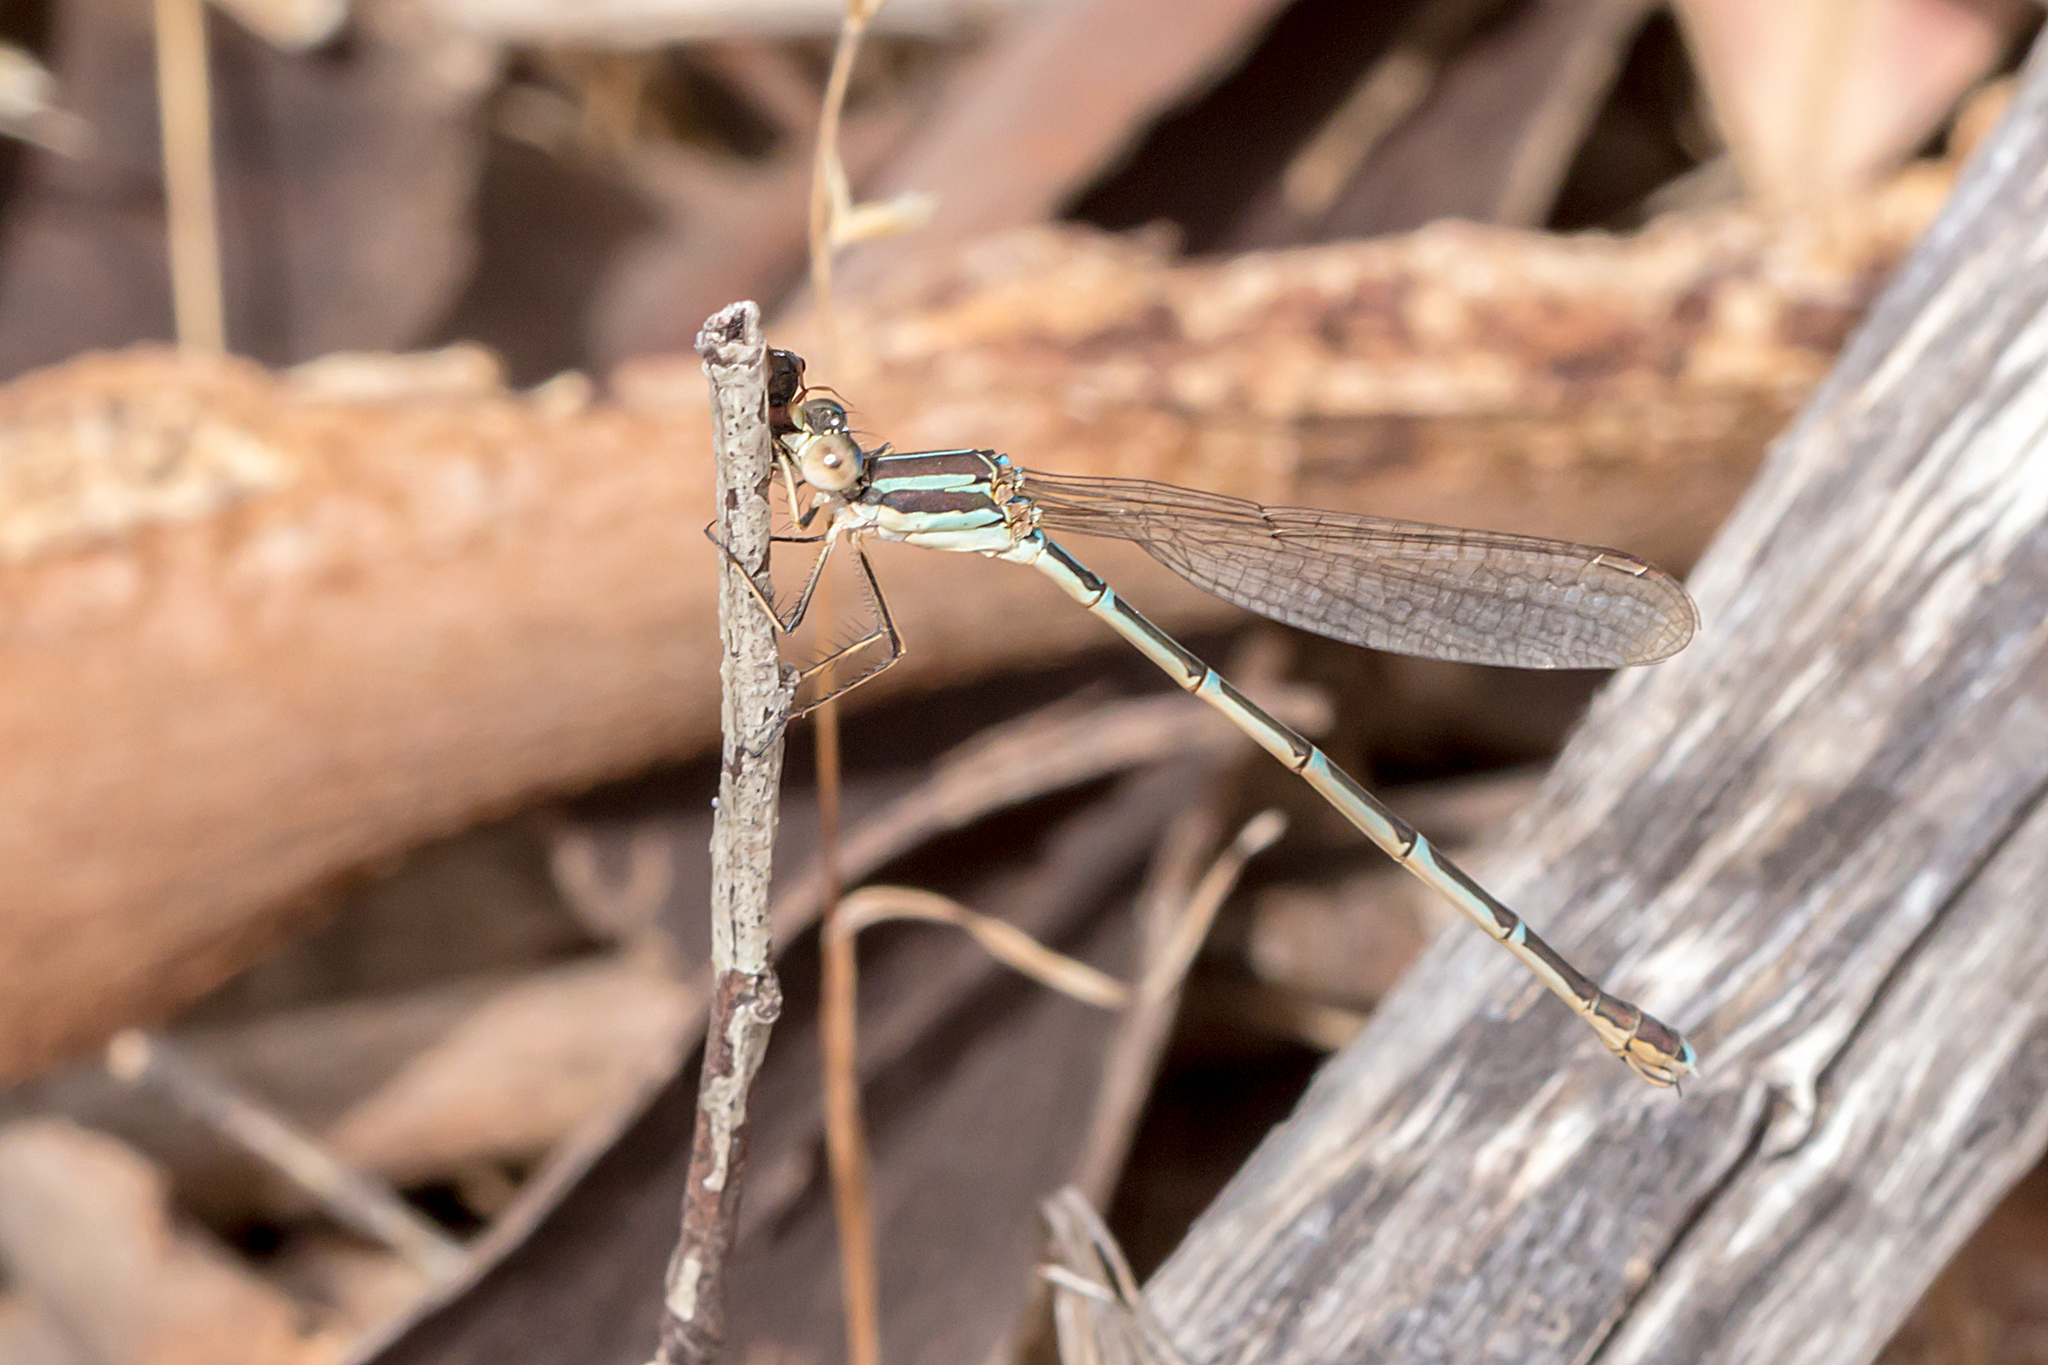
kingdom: Animalia
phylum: Arthropoda
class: Insecta
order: Odonata
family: Lestidae
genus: Austrolestes
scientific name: Austrolestes analis
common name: Slender ringtail
